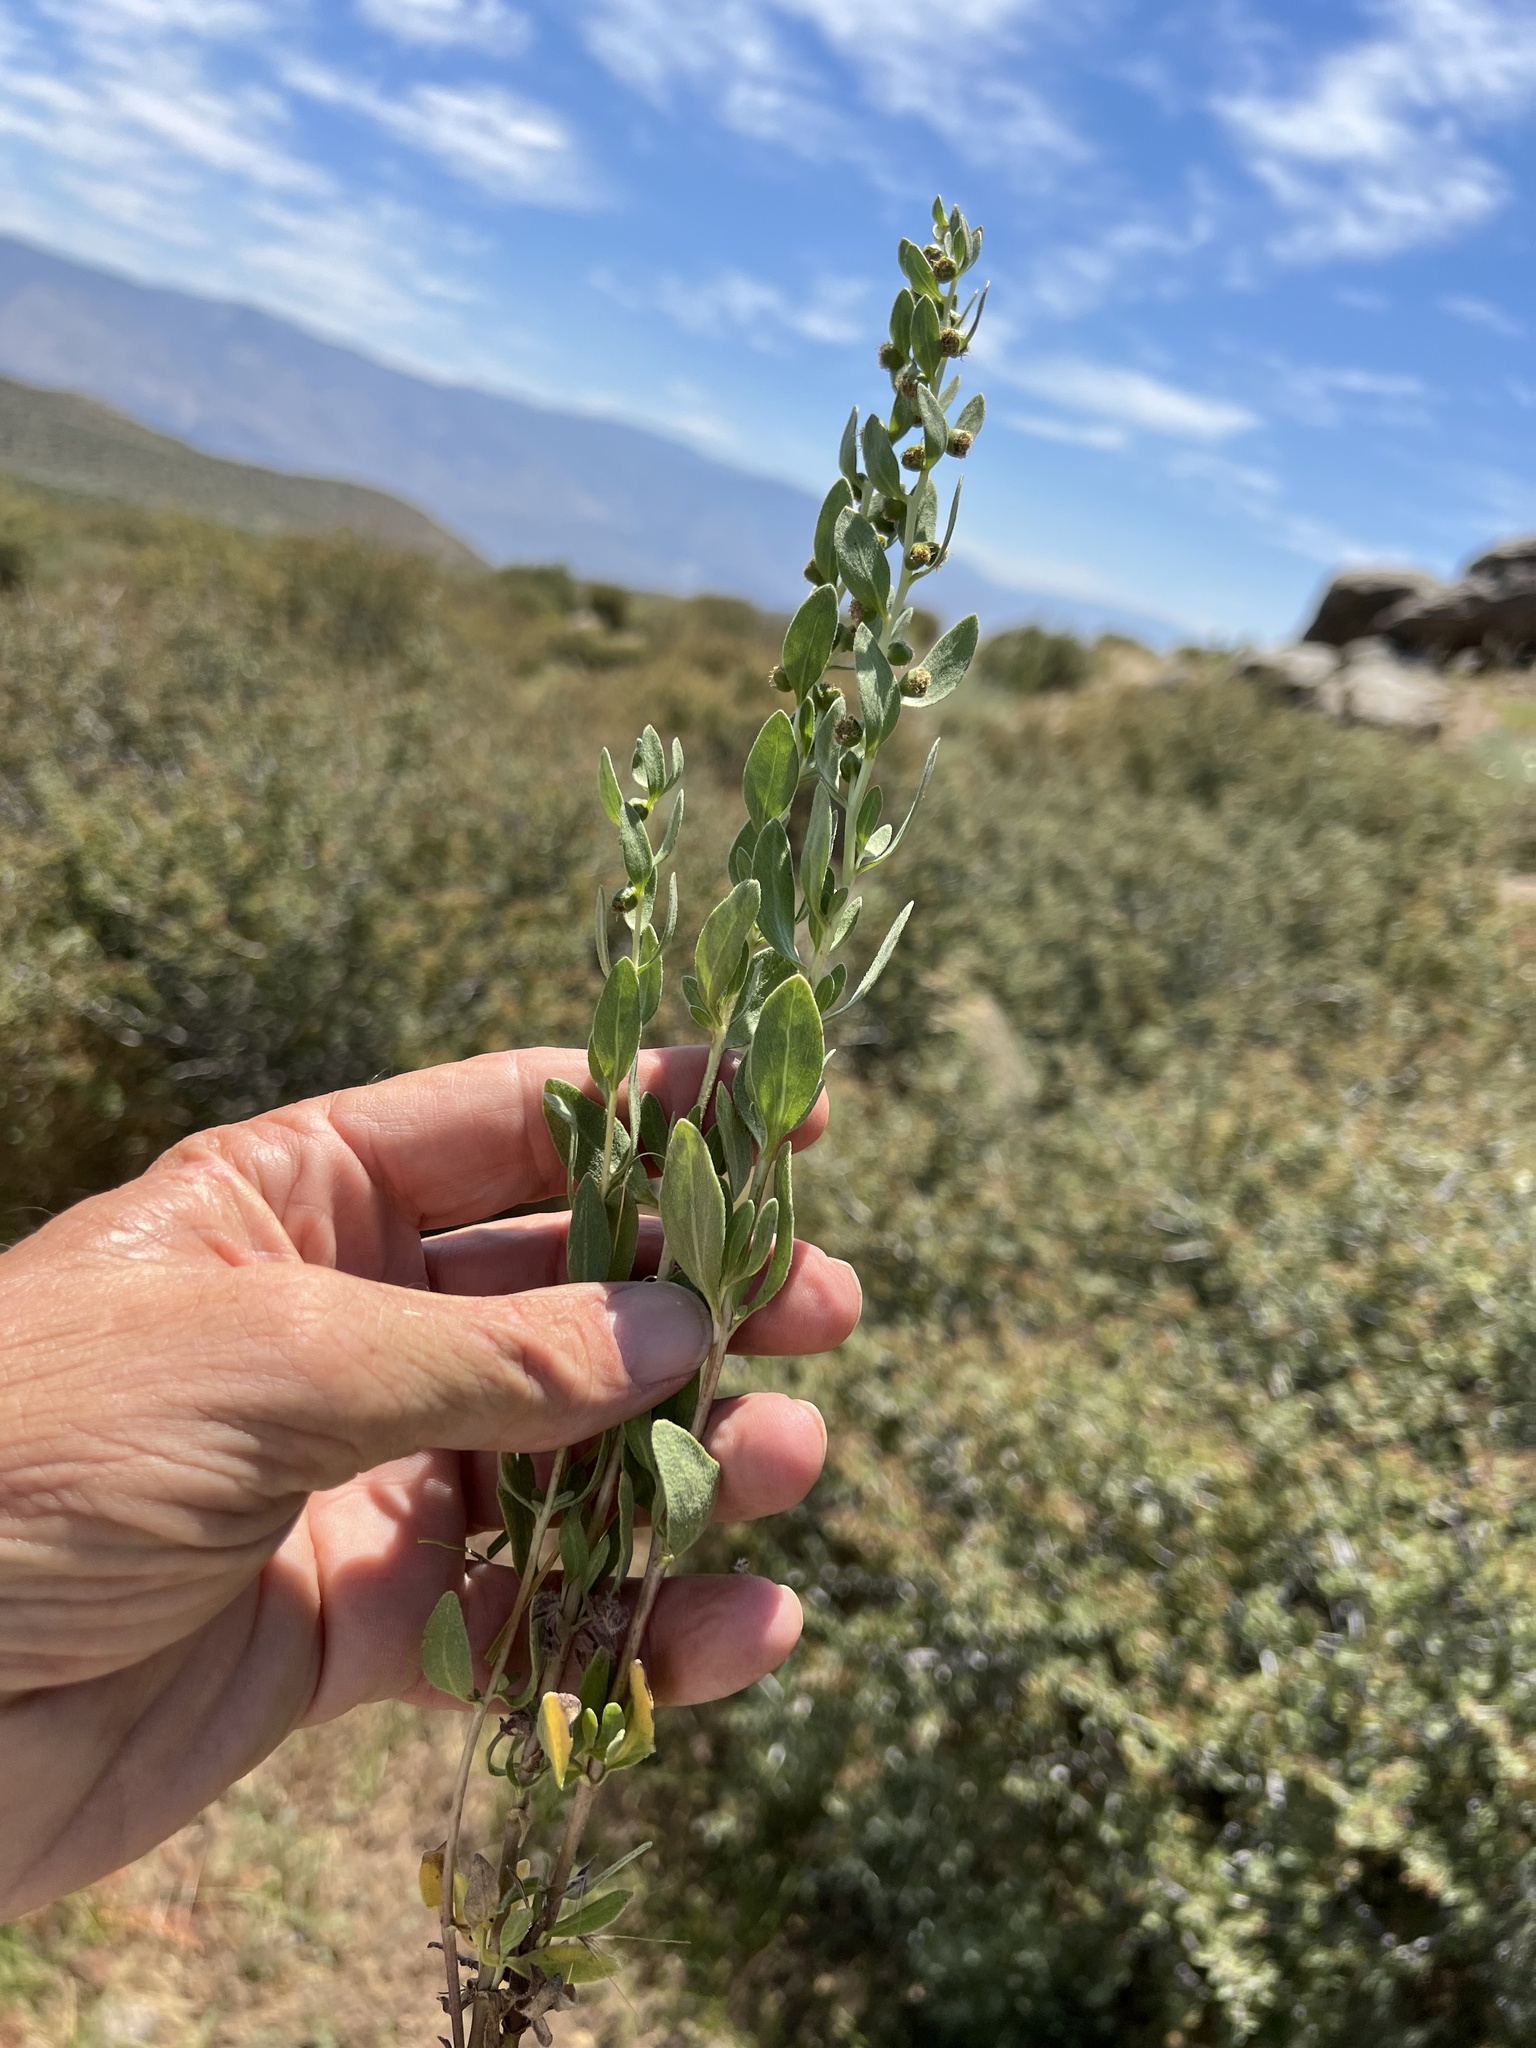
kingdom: Plantae
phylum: Tracheophyta
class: Magnoliopsida
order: Asterales
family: Asteraceae
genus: Iva
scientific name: Iva axillaris
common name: Poverty sumpweed
